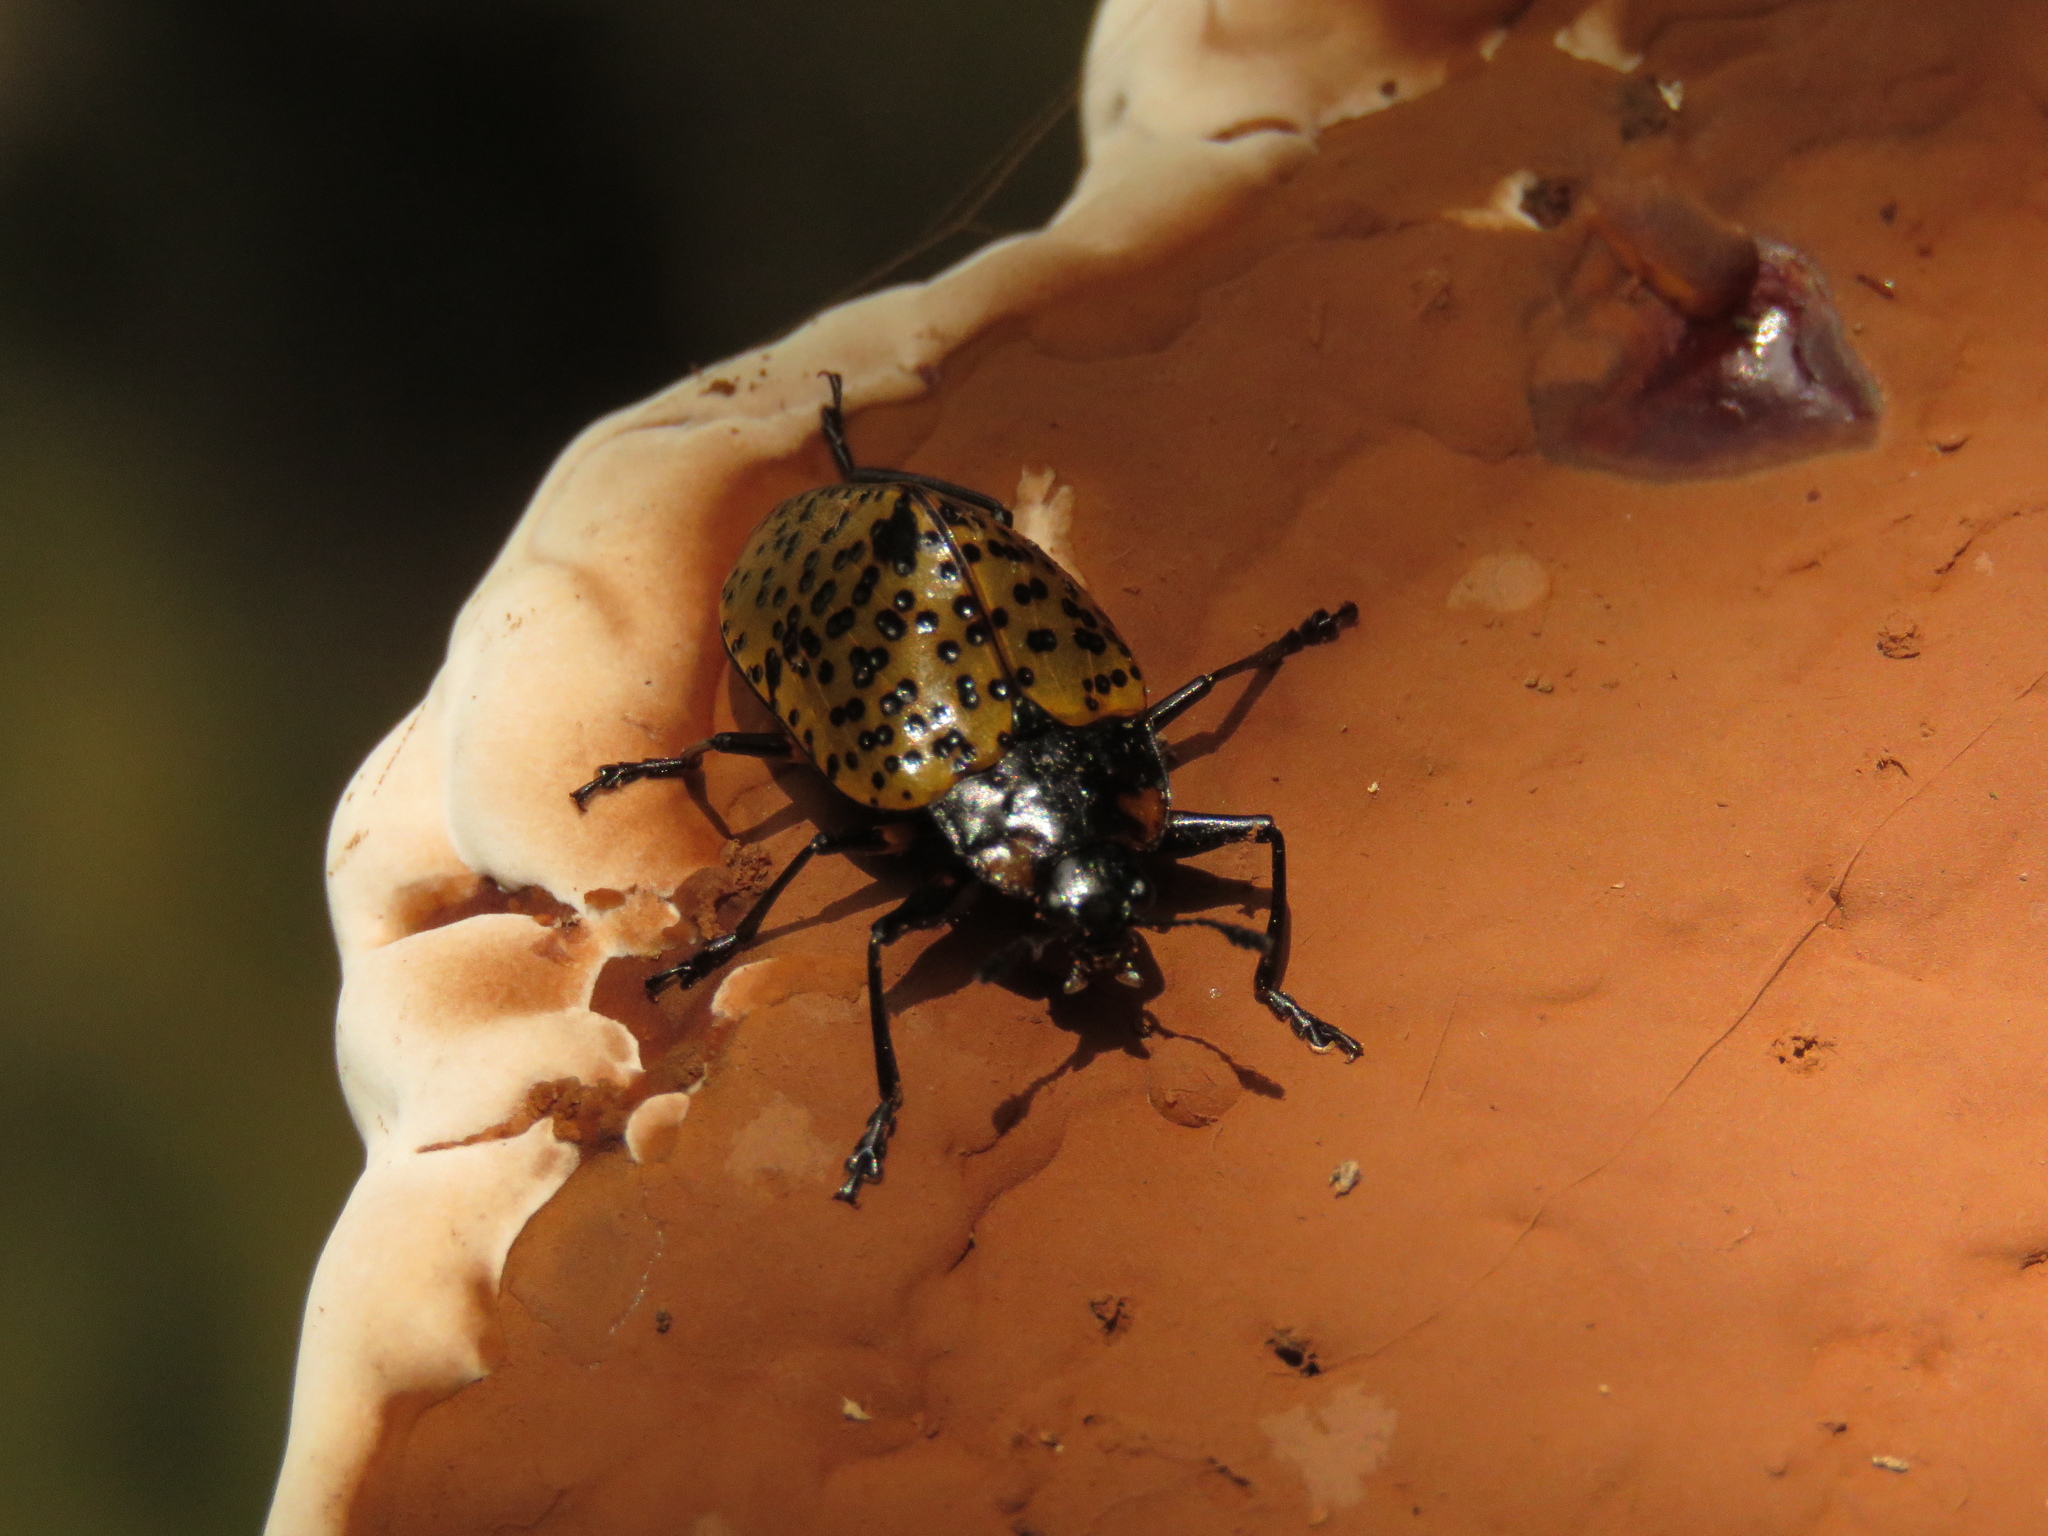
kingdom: Animalia
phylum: Arthropoda
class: Insecta
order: Coleoptera
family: Erotylidae
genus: Gibbifer
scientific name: Gibbifer
